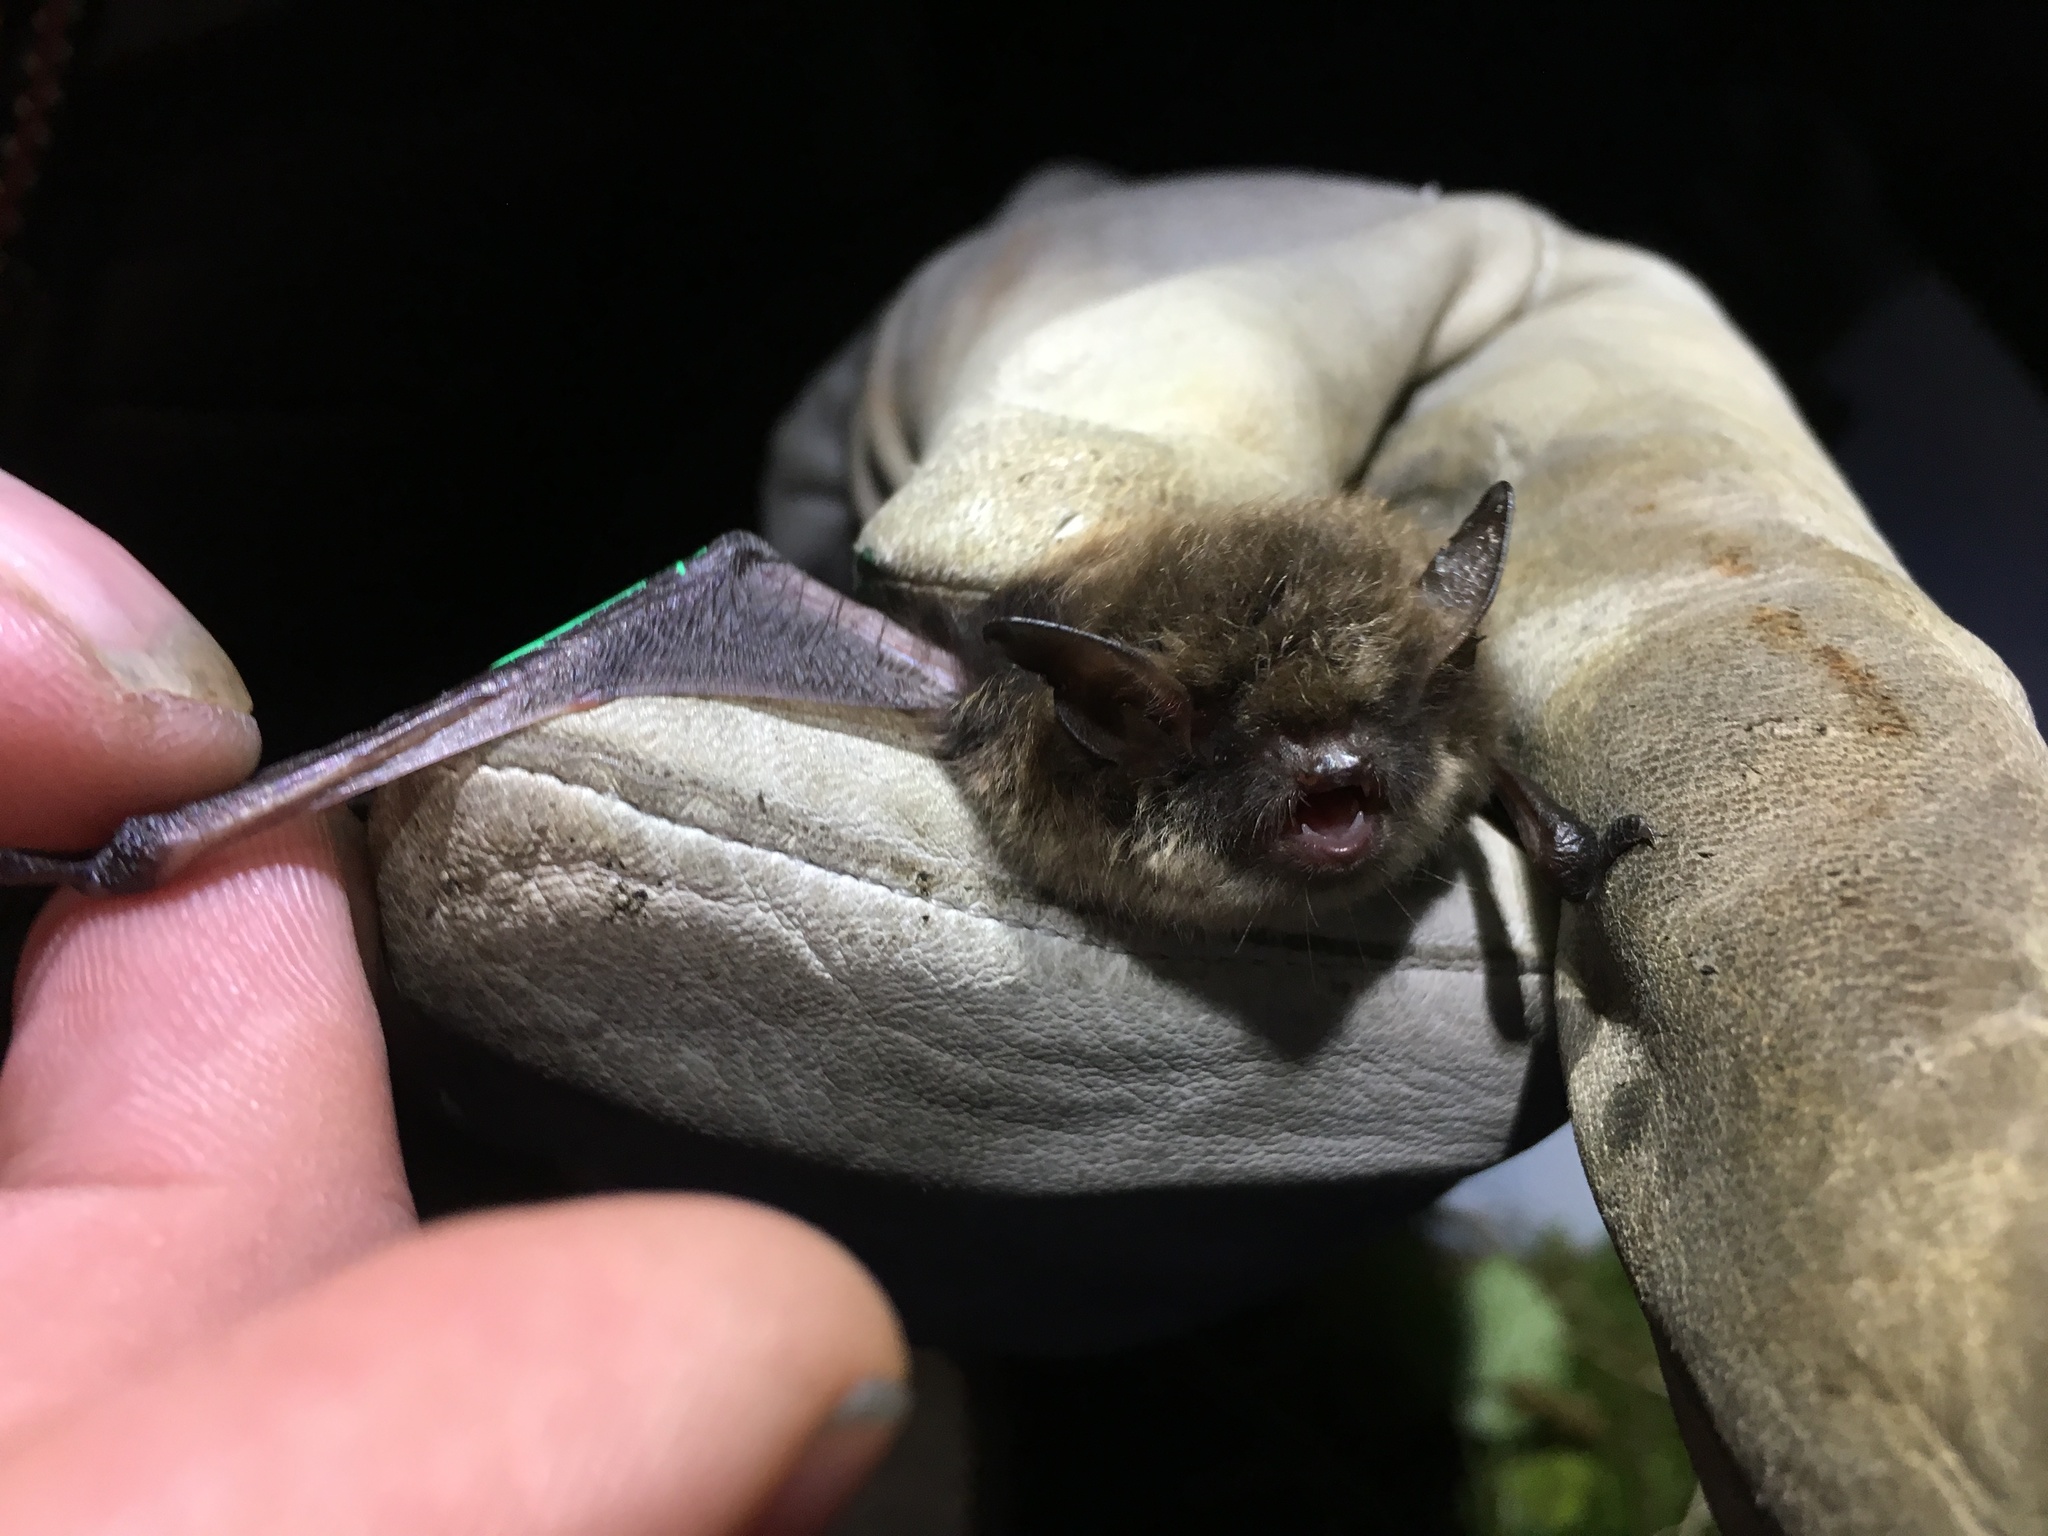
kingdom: Animalia
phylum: Chordata
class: Mammalia
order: Chiroptera
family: Vespertilionidae
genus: Myotis
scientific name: Myotis mystacinus
